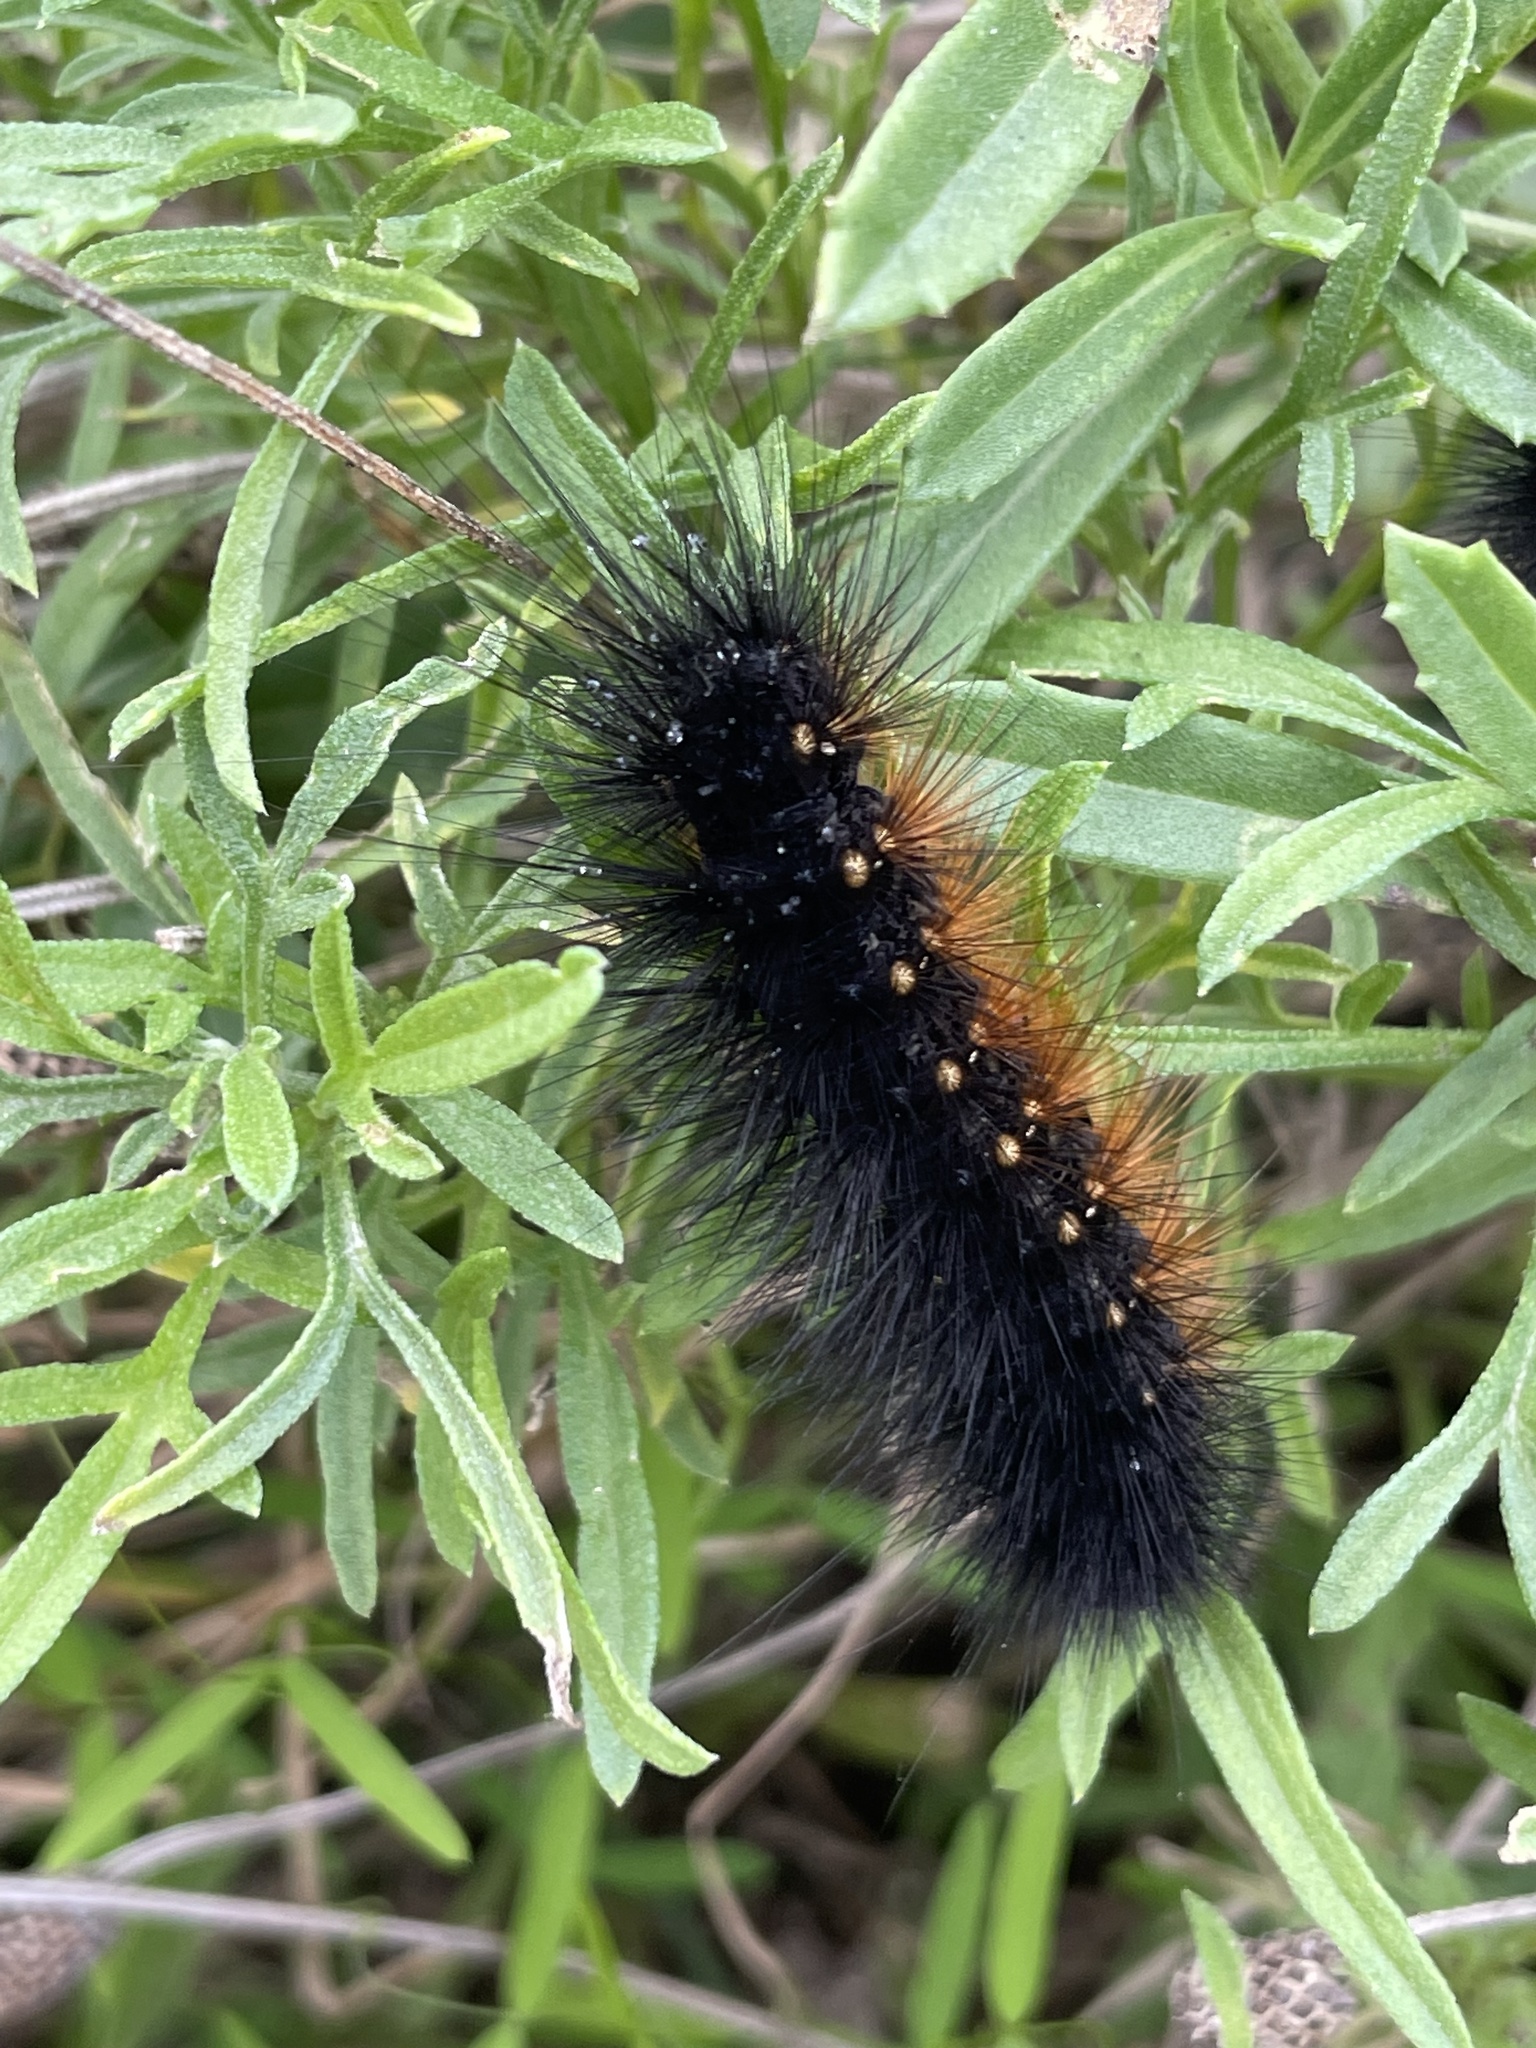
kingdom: Animalia
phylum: Arthropoda
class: Insecta
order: Lepidoptera
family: Erebidae
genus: Estigmene
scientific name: Estigmene acrea
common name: Salt marsh moth
